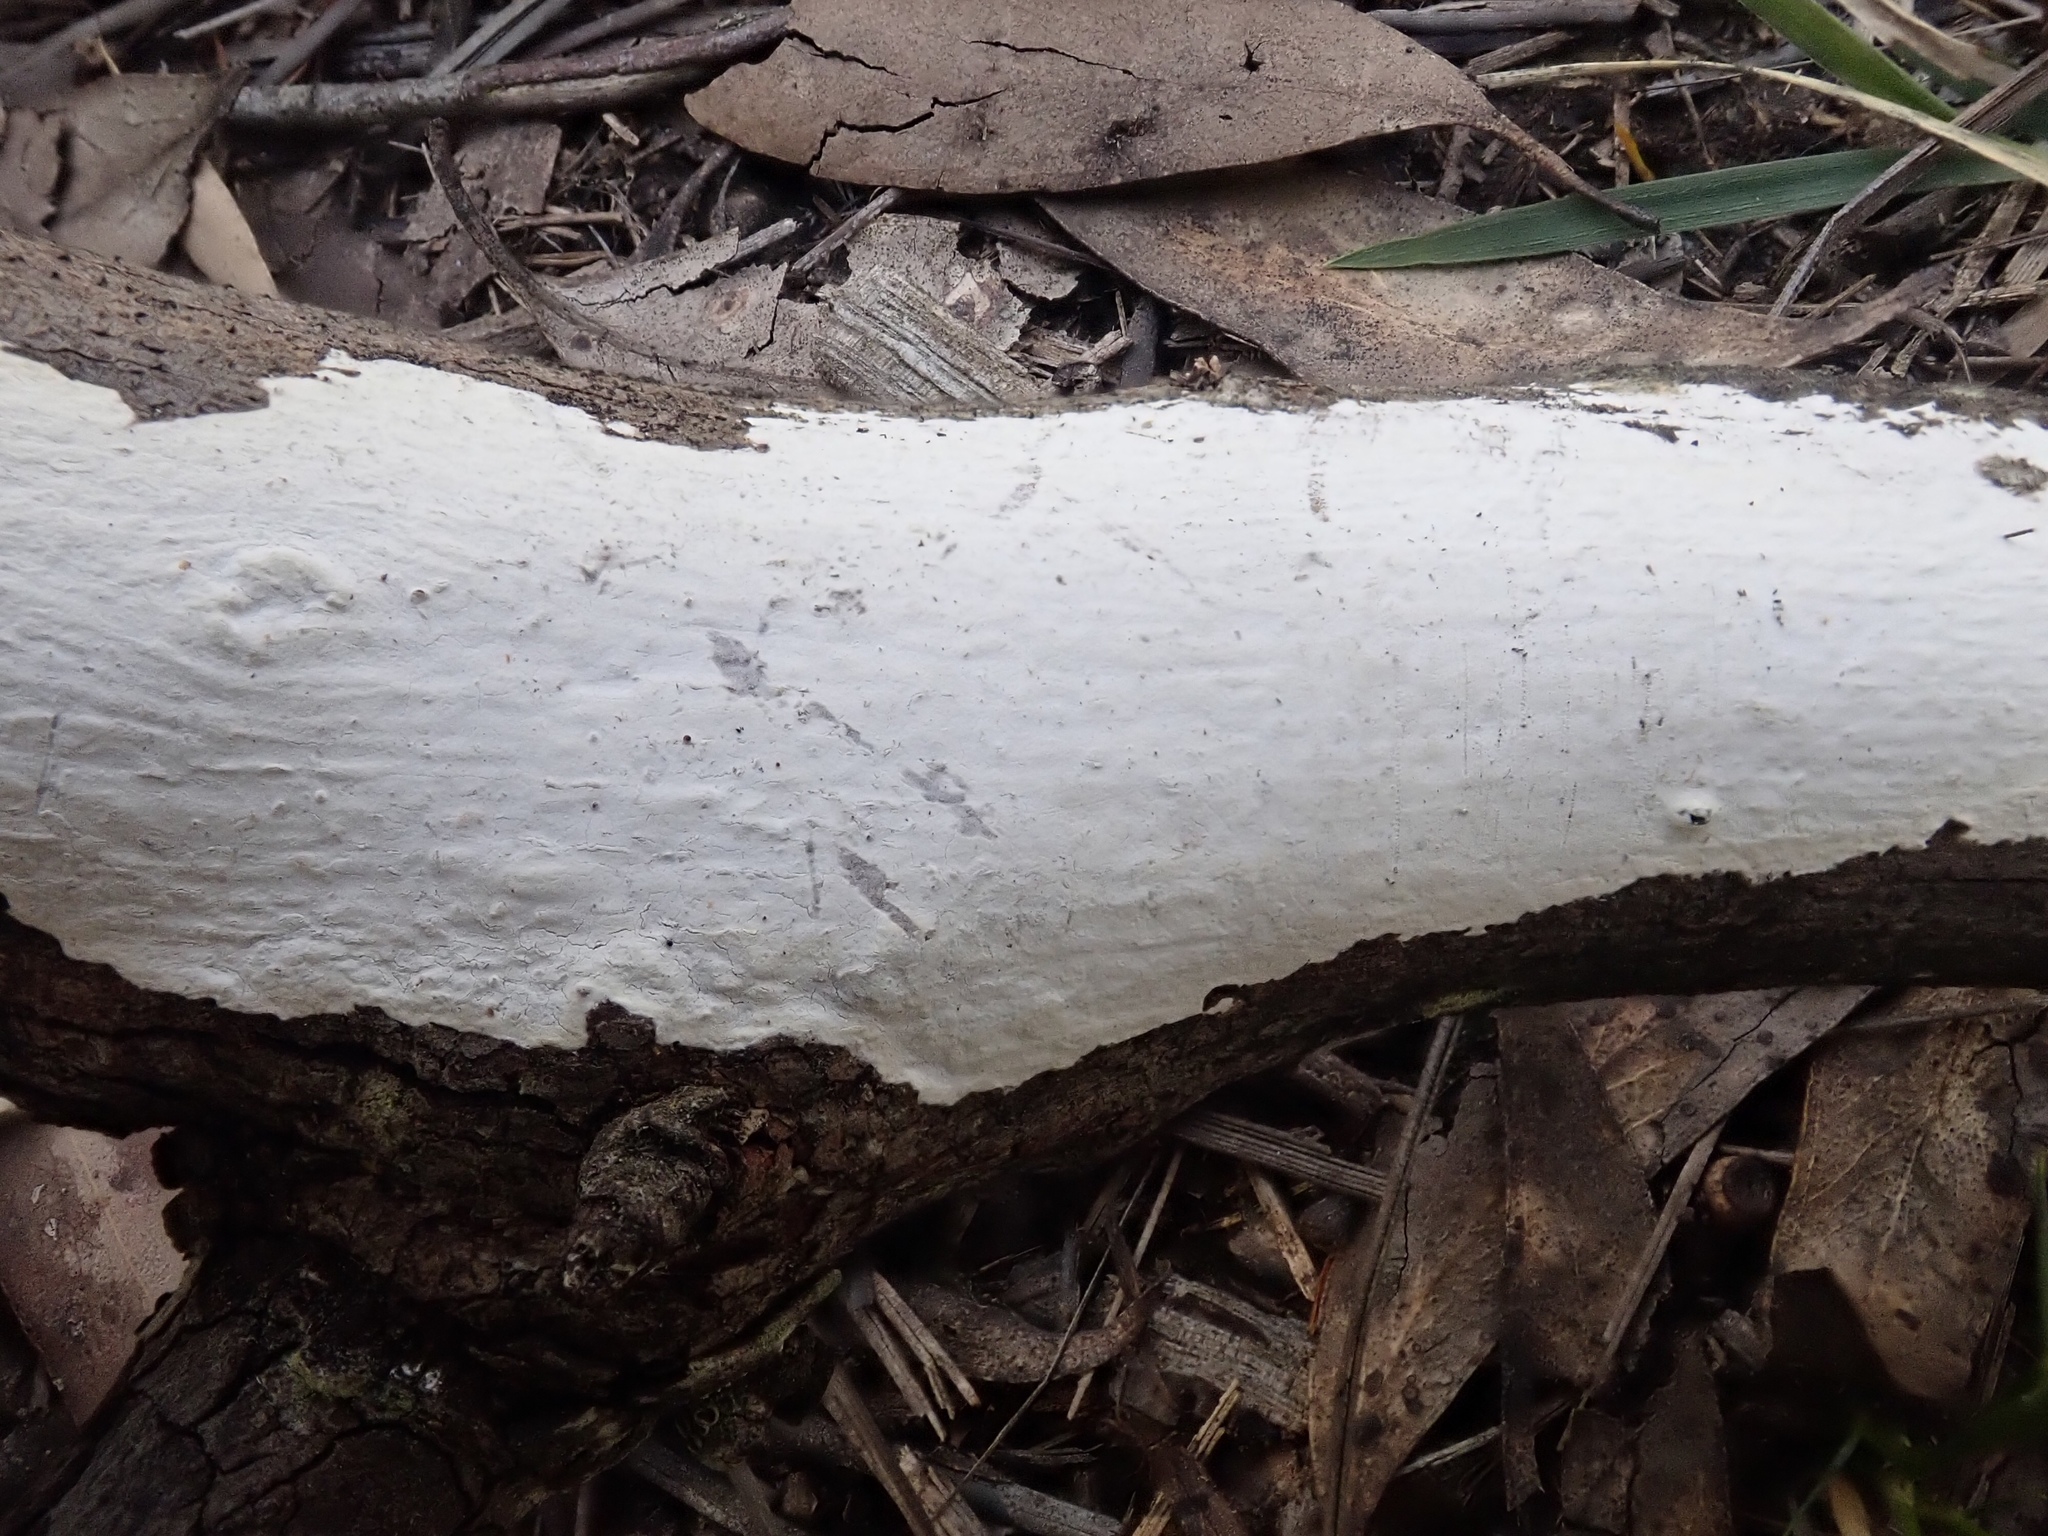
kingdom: Fungi
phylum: Basidiomycota
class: Agaricomycetes
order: Russulales
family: Stereaceae
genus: Aleurodiscus
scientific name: Aleurodiscus sparsus
